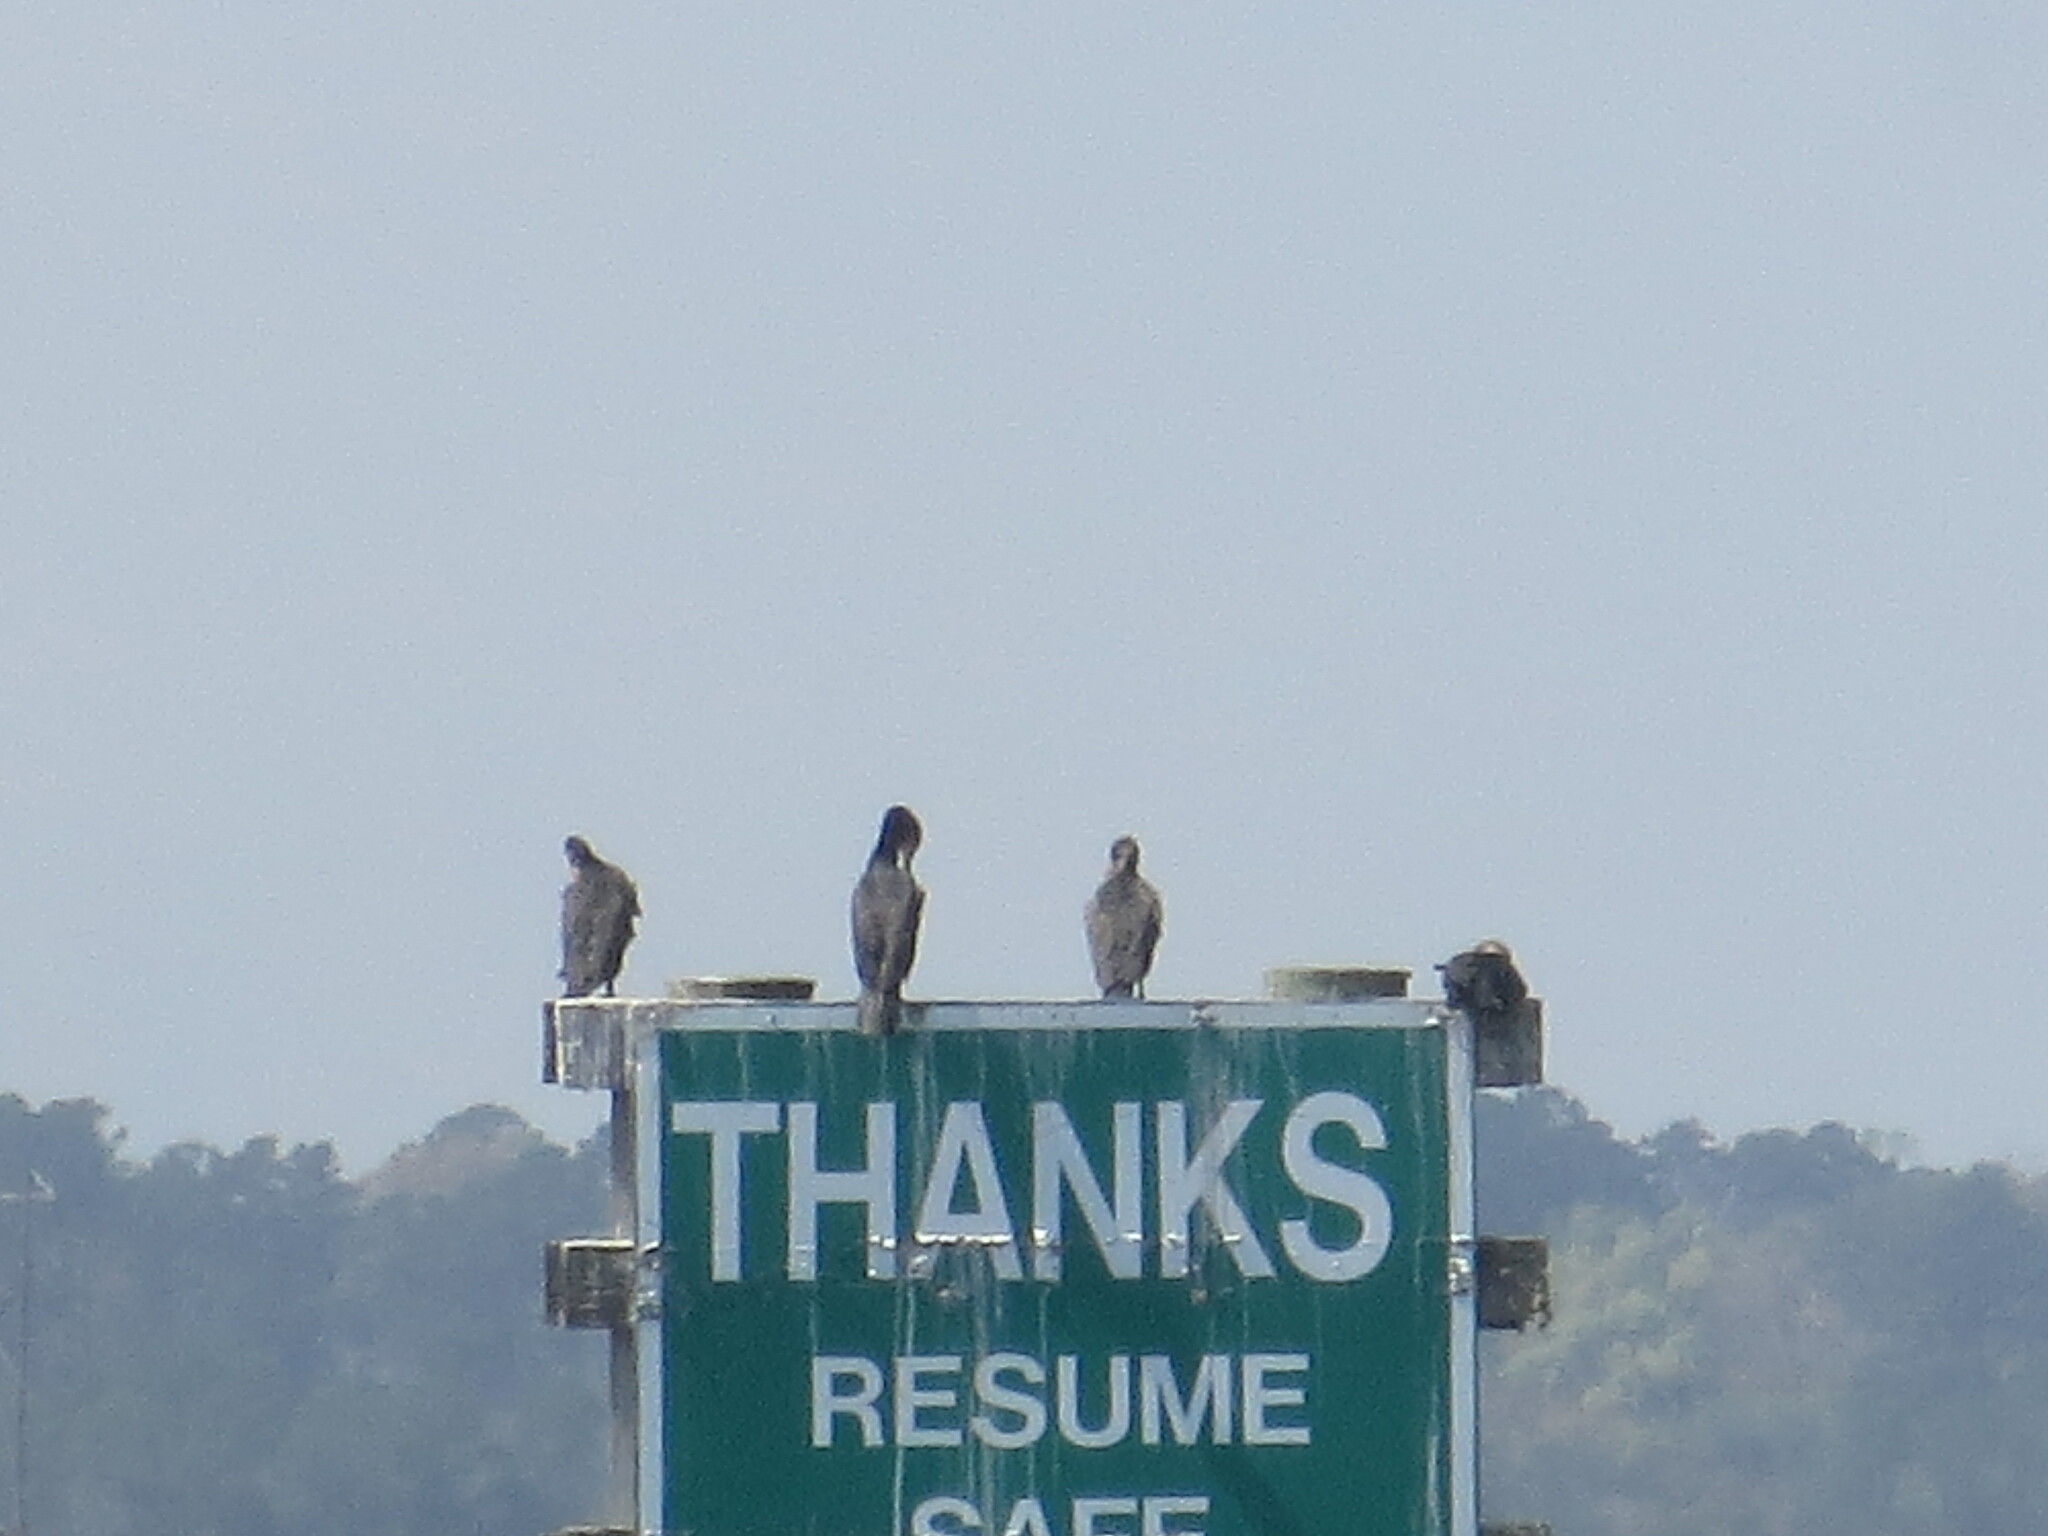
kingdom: Animalia
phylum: Chordata
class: Aves
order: Suliformes
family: Phalacrocoracidae
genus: Phalacrocorax
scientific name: Phalacrocorax auritus
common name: Double-crested cormorant
